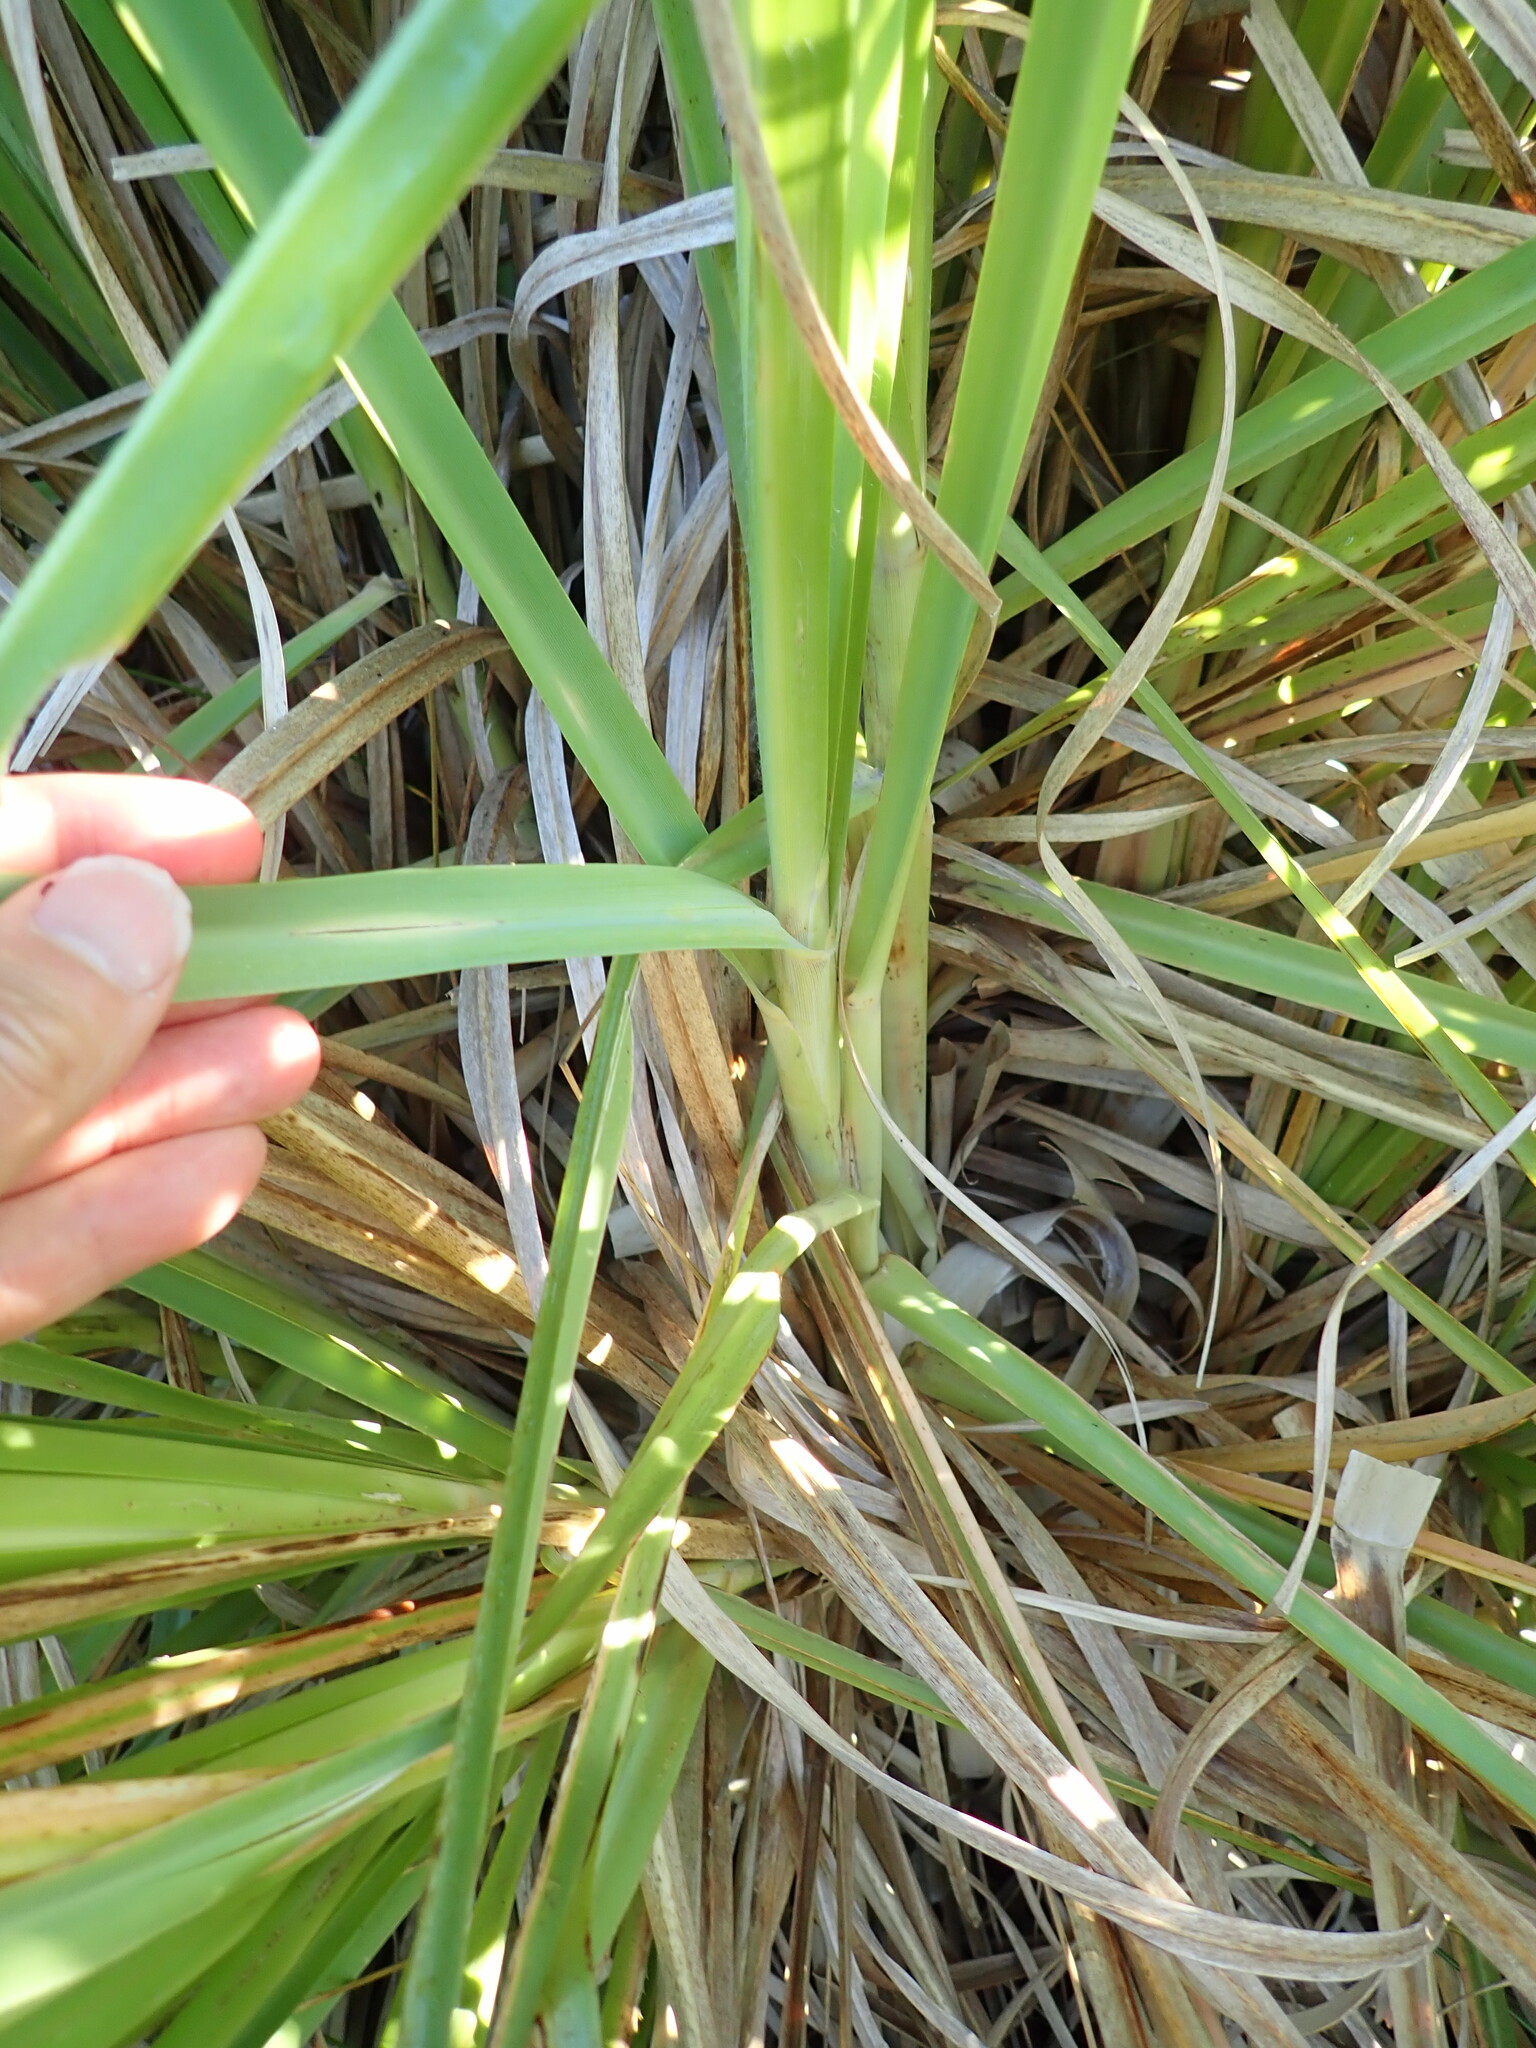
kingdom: Plantae
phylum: Tracheophyta
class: Liliopsida
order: Poales
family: Poaceae
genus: Cortaderia
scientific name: Cortaderia selloana
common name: Uruguayan pampas grass
